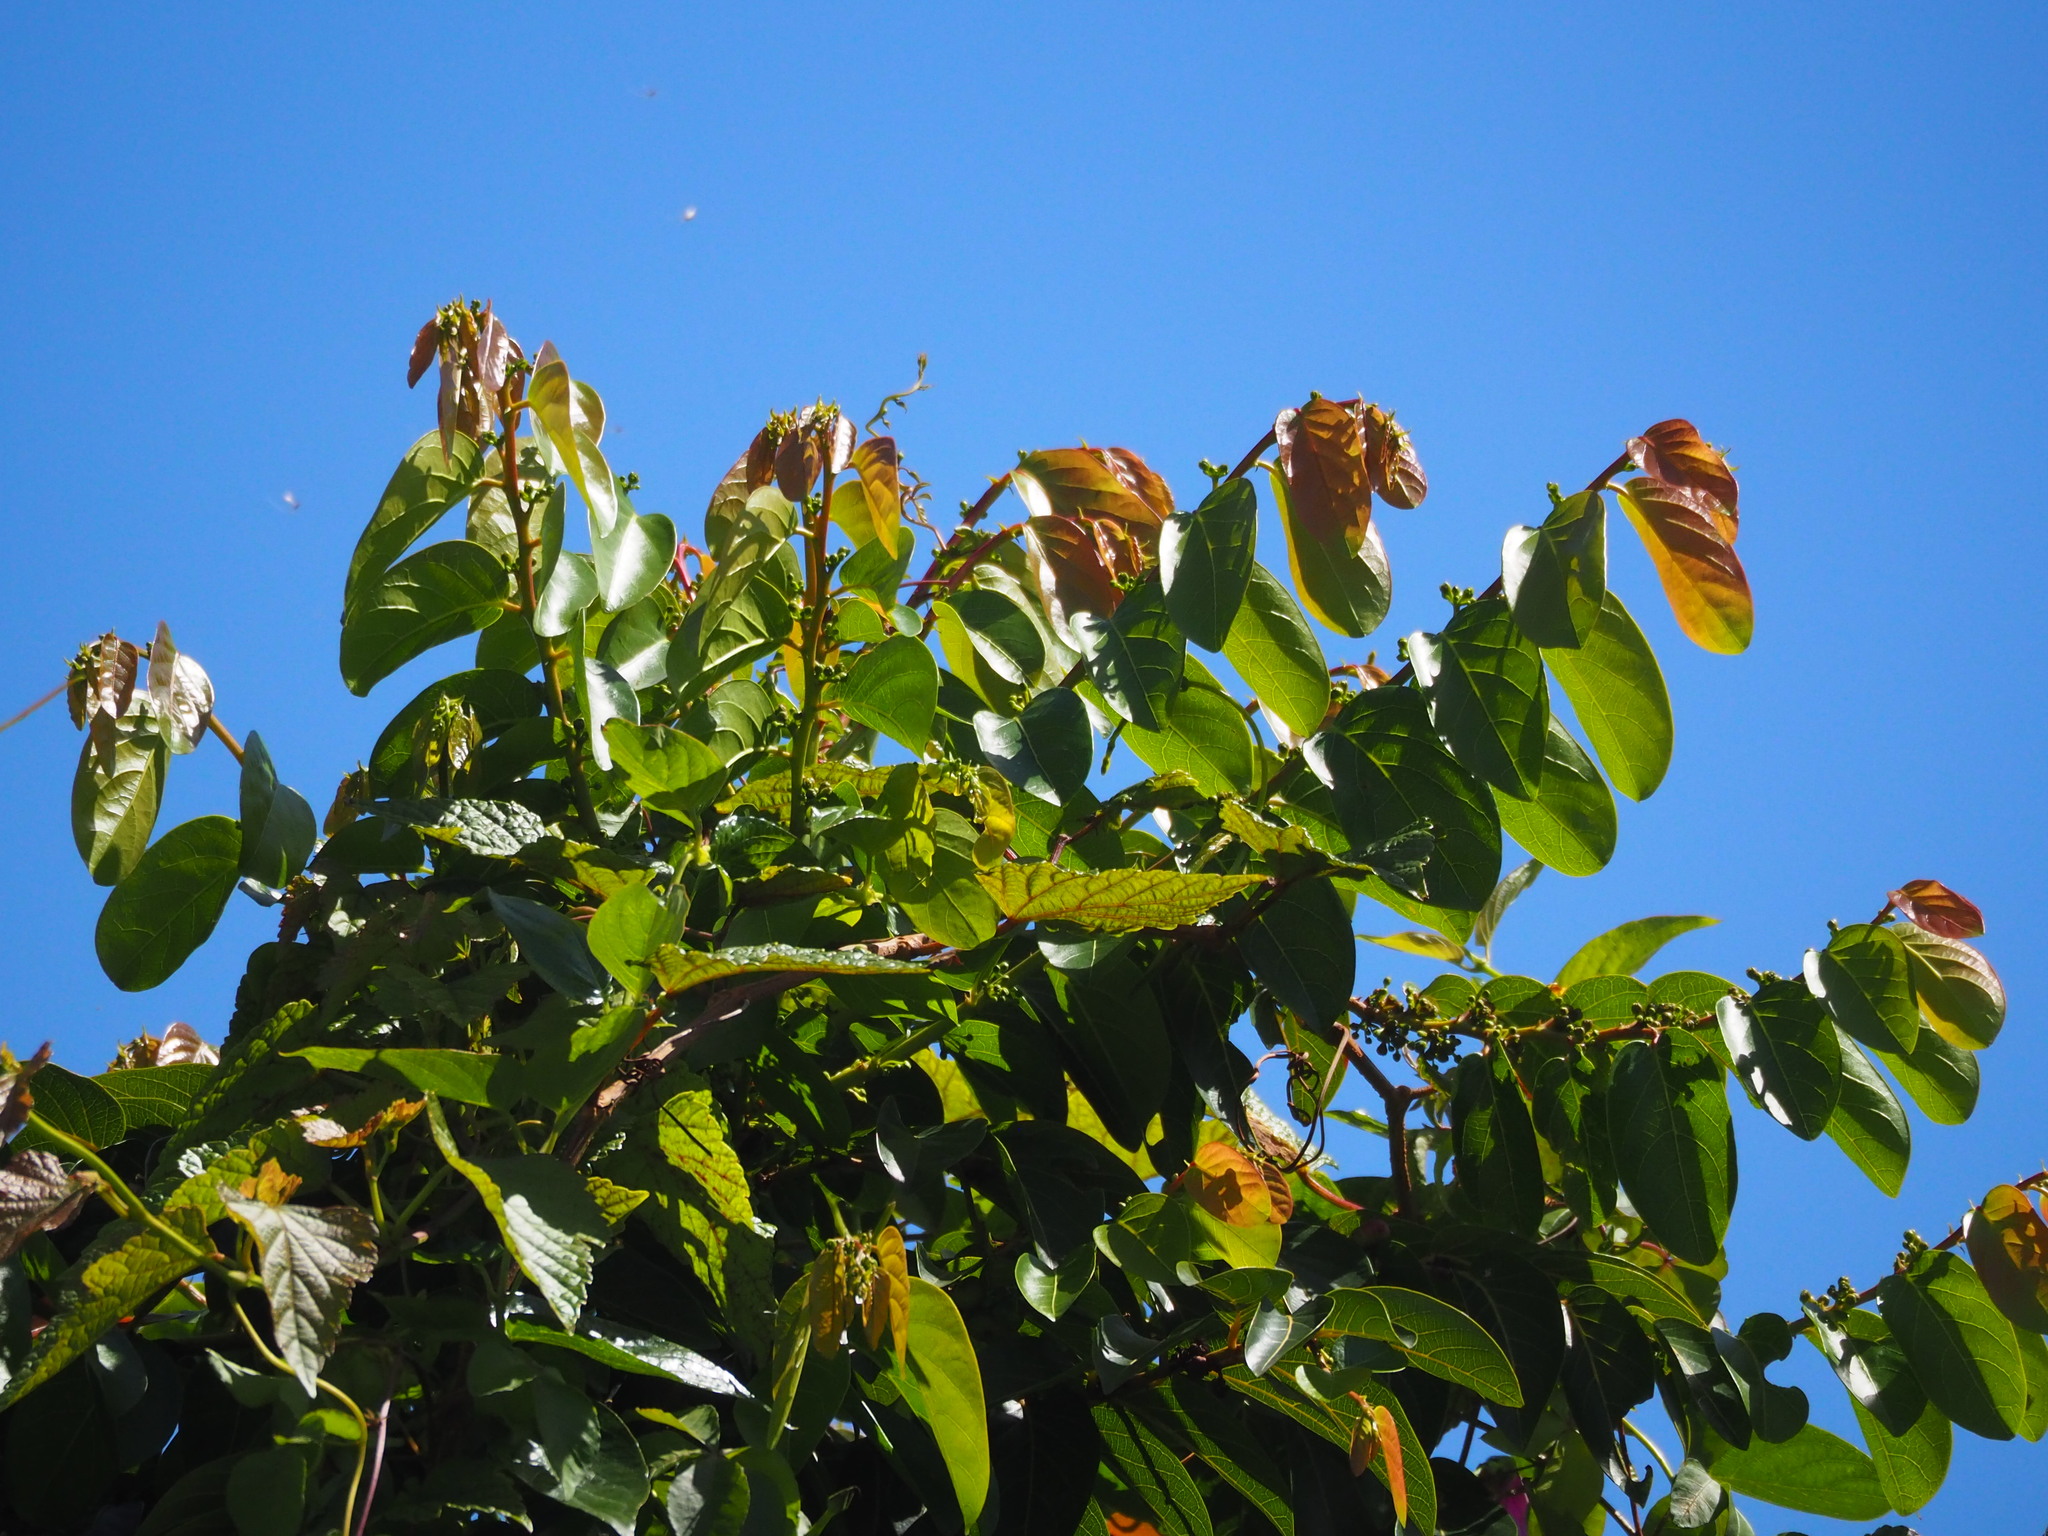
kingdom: Plantae
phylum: Tracheophyta
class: Magnoliopsida
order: Malpighiales
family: Phyllanthaceae
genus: Glochidion
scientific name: Glochidion zeylanicum
